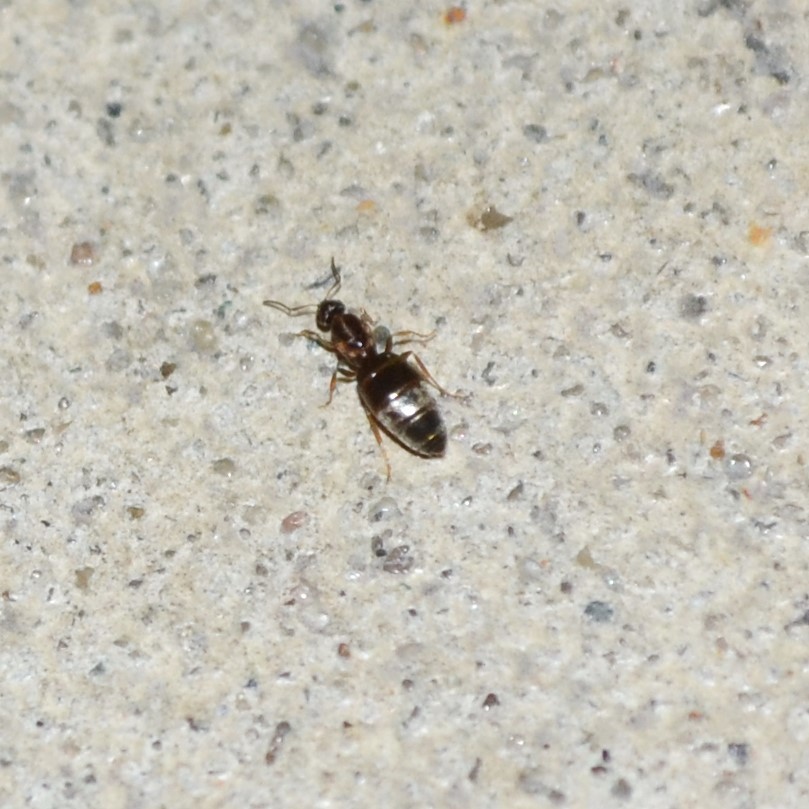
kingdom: Animalia
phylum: Arthropoda
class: Insecta
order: Hymenoptera
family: Formicidae
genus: Brachymyrmex
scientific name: Brachymyrmex patagonicus
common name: Dark rover ant
